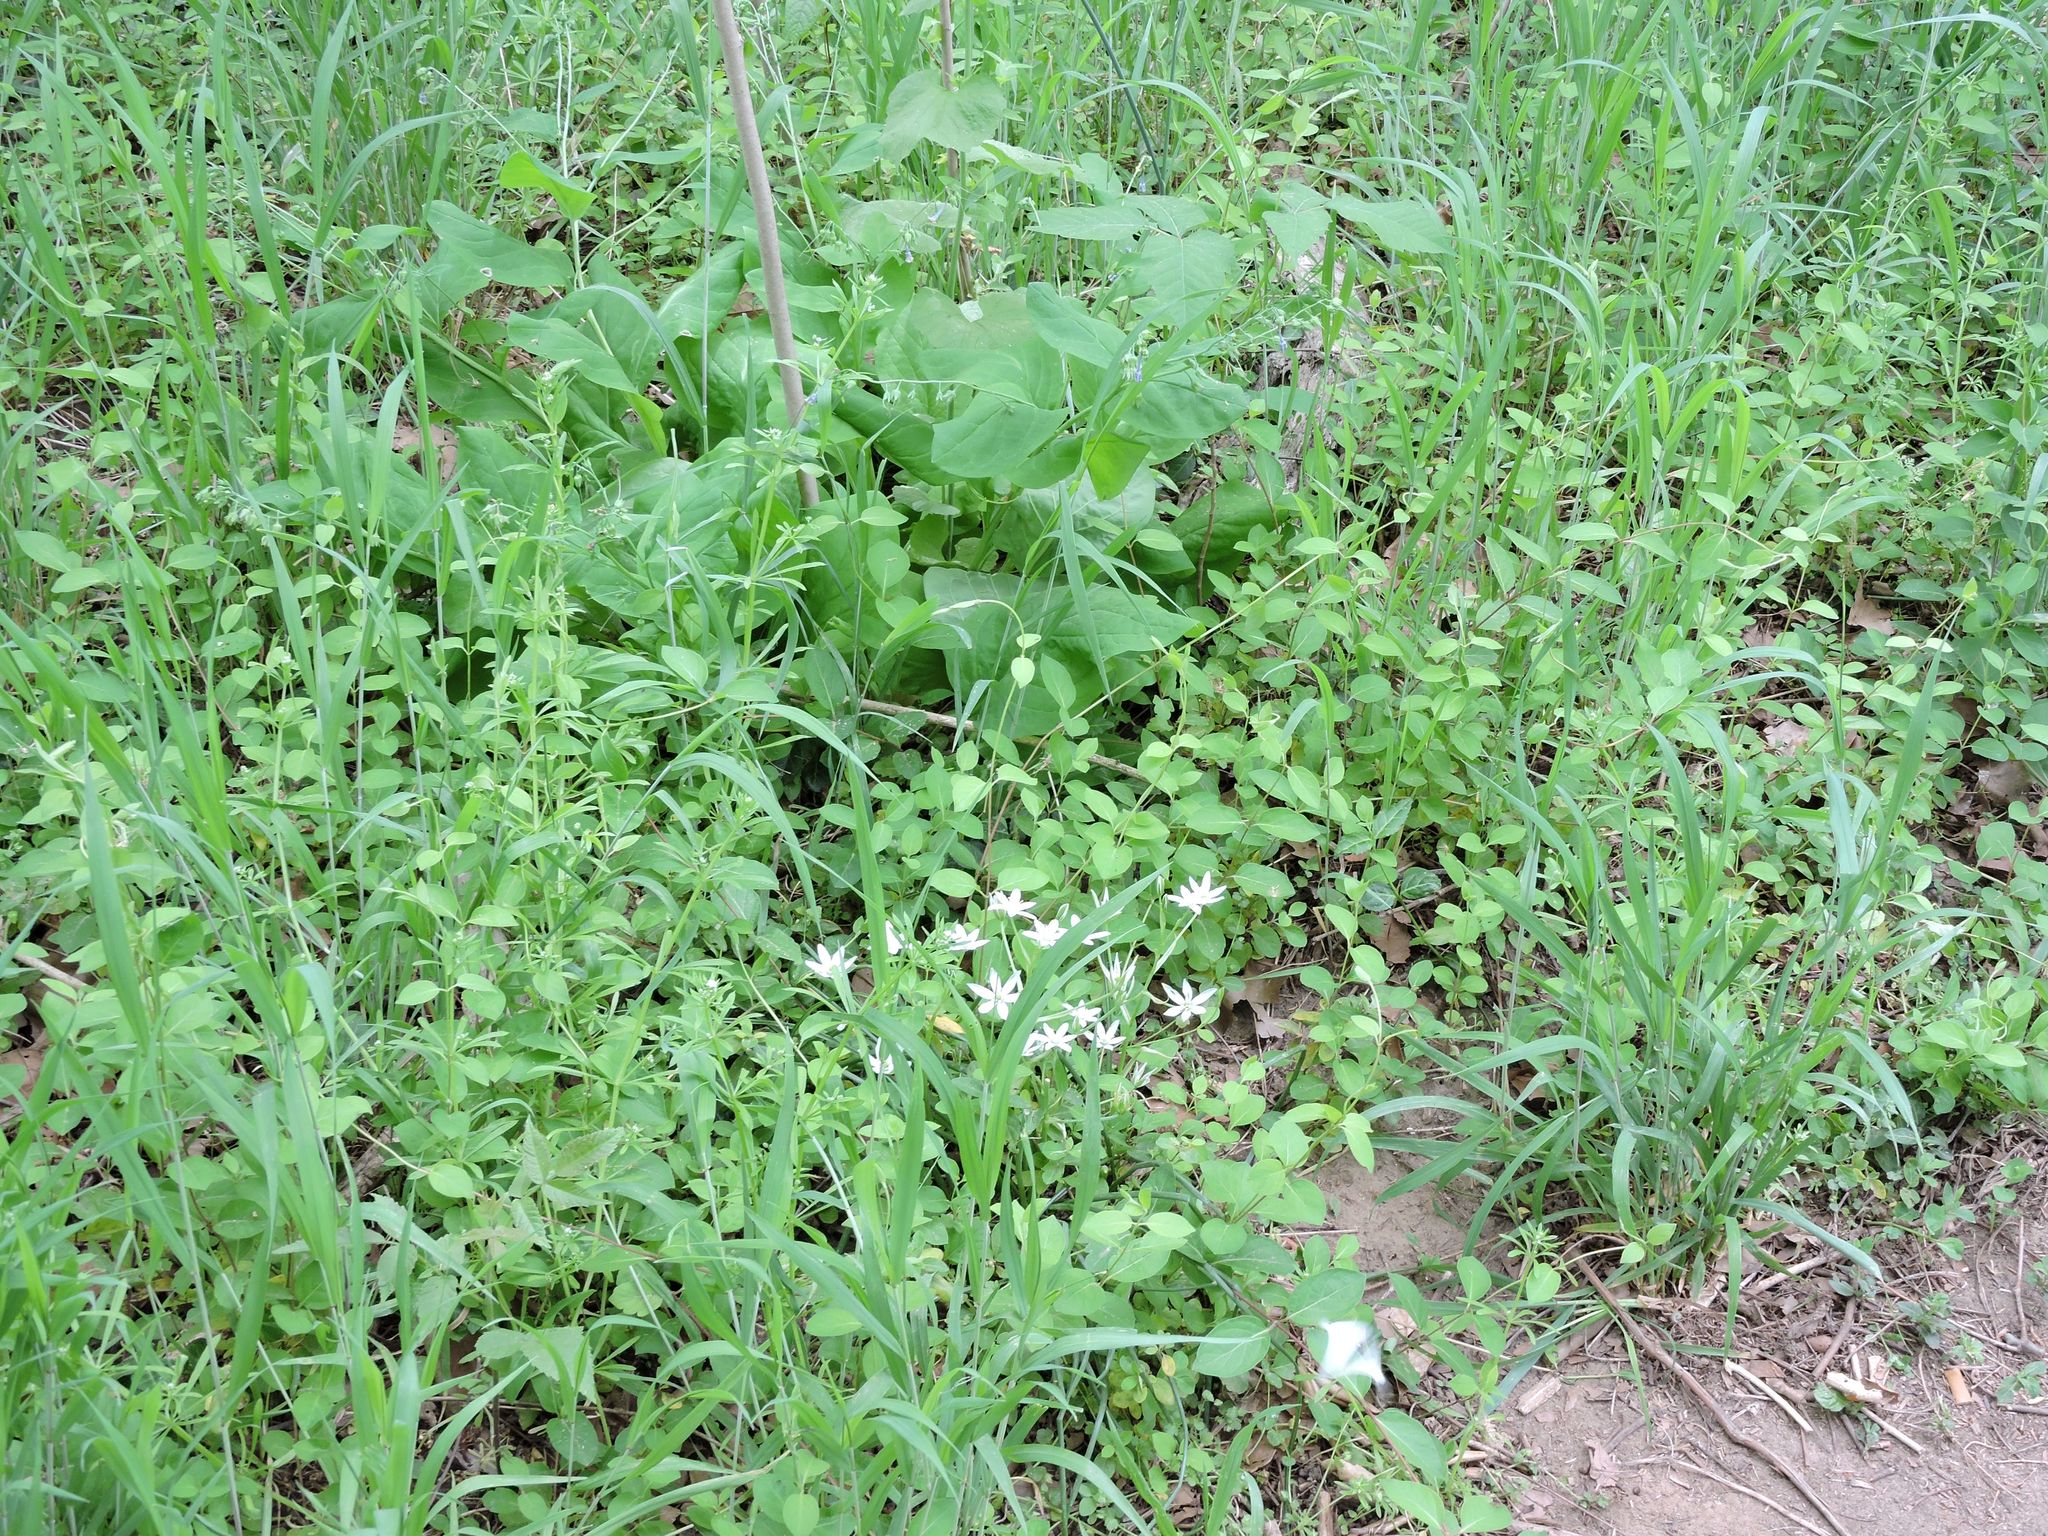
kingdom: Plantae
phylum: Tracheophyta
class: Liliopsida
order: Asparagales
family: Asparagaceae
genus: Ornithogalum
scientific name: Ornithogalum umbellatum
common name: Garden star-of-bethlehem
